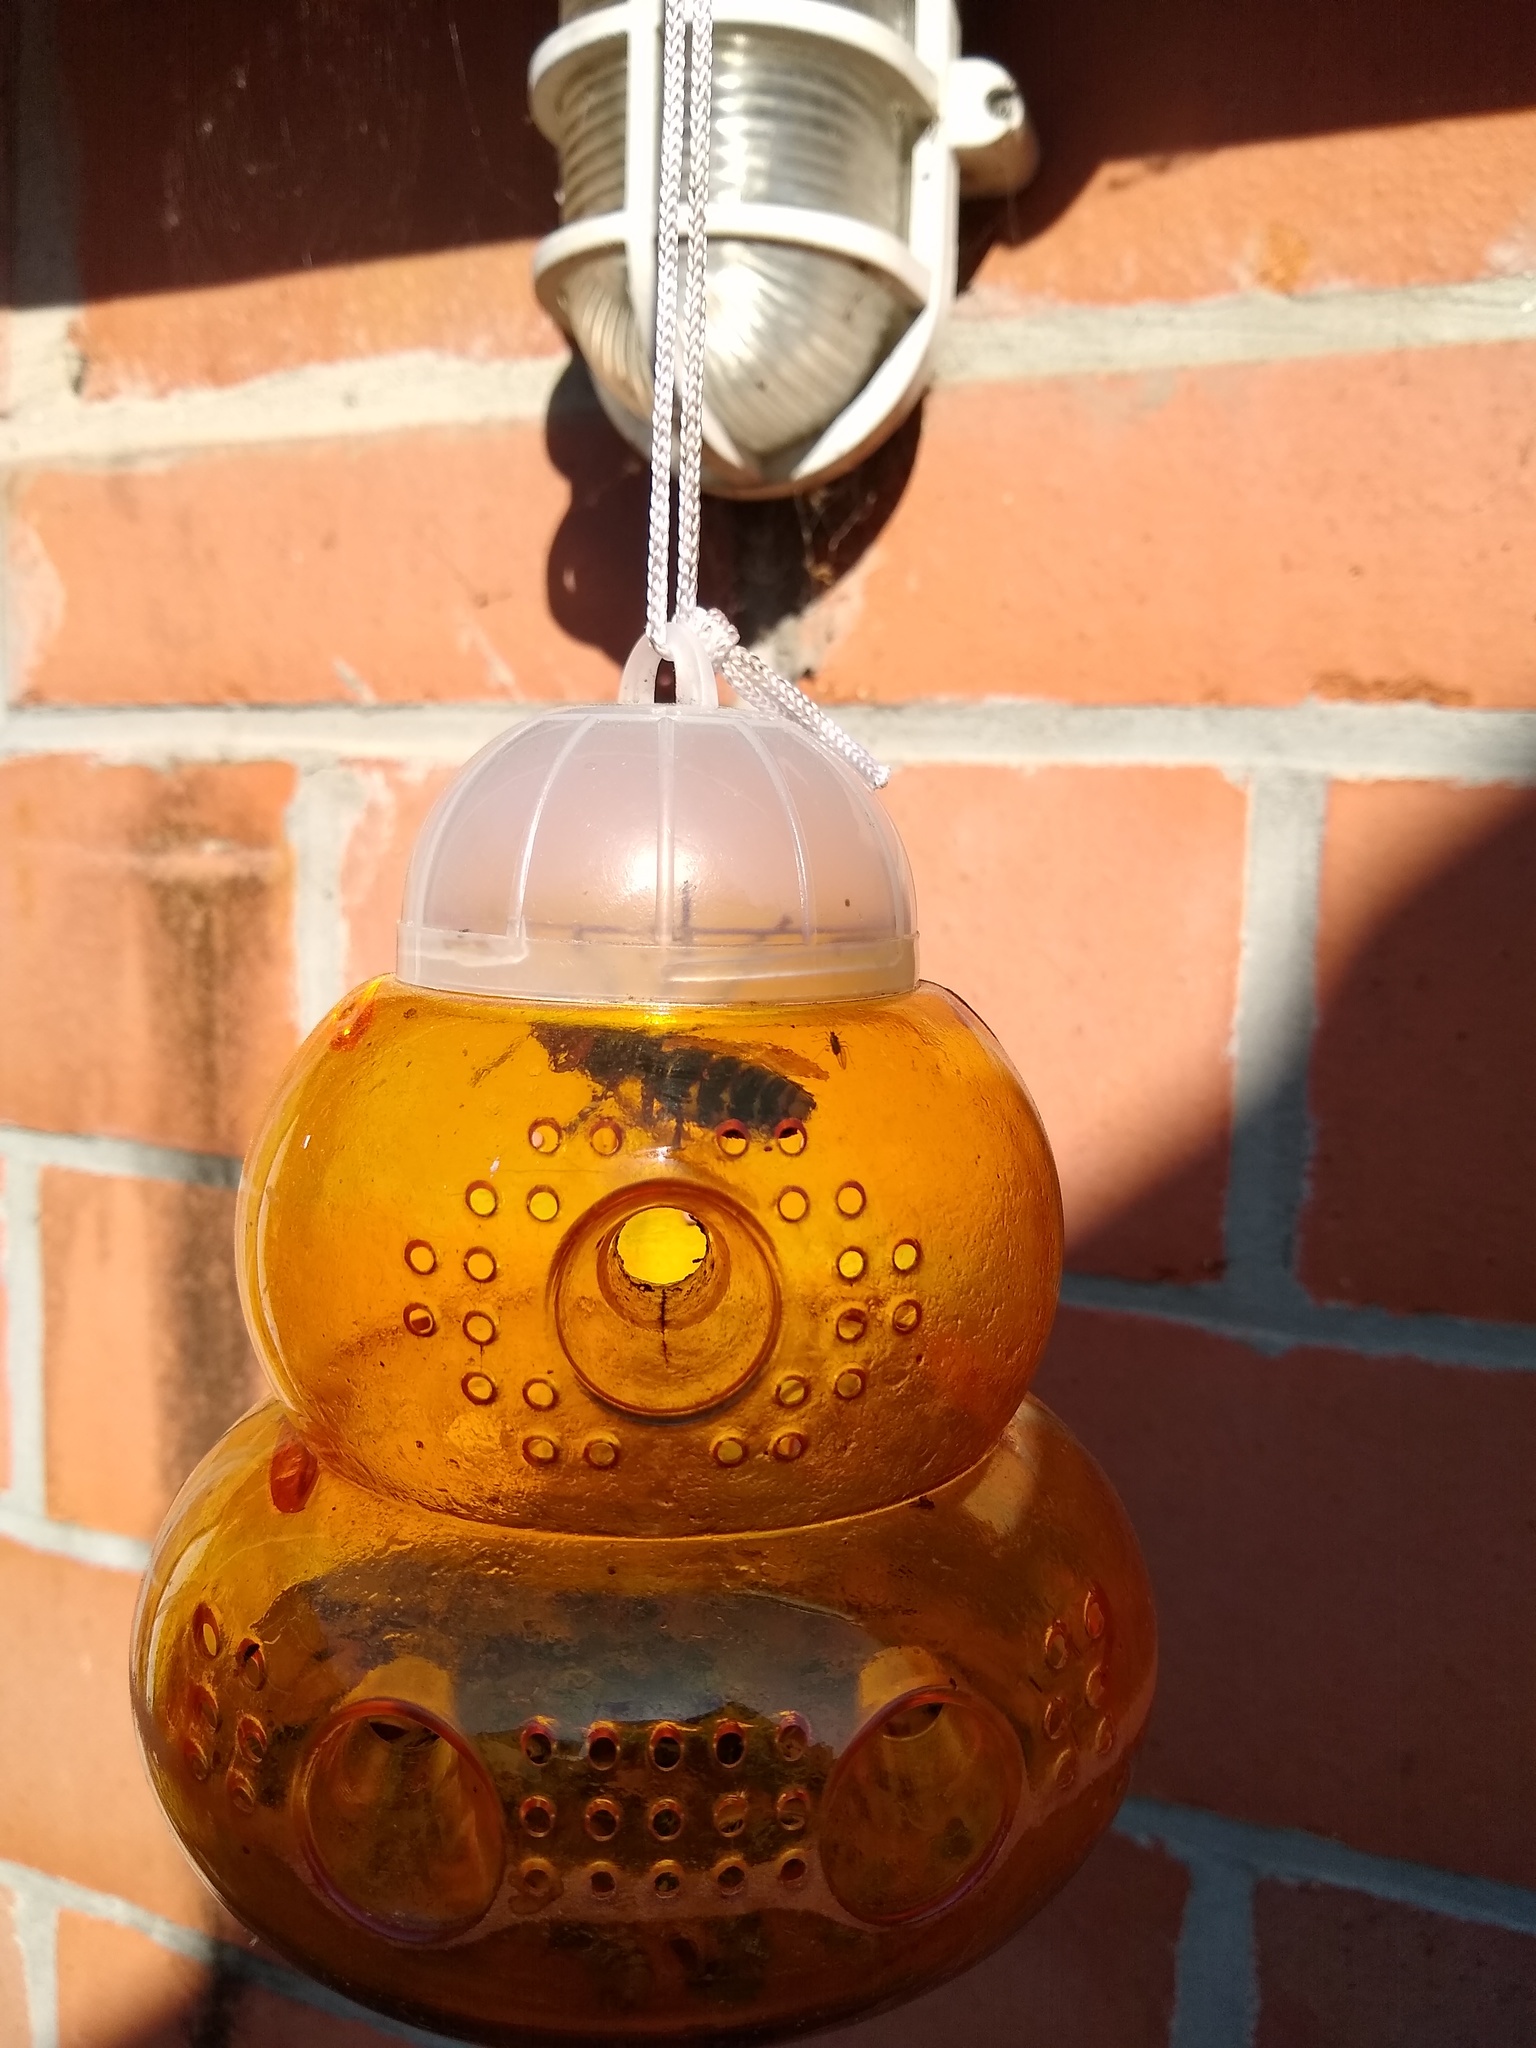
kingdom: Animalia
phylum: Arthropoda
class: Insecta
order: Hymenoptera
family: Vespidae
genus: Vespa
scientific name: Vespa crabro
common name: Hornet
